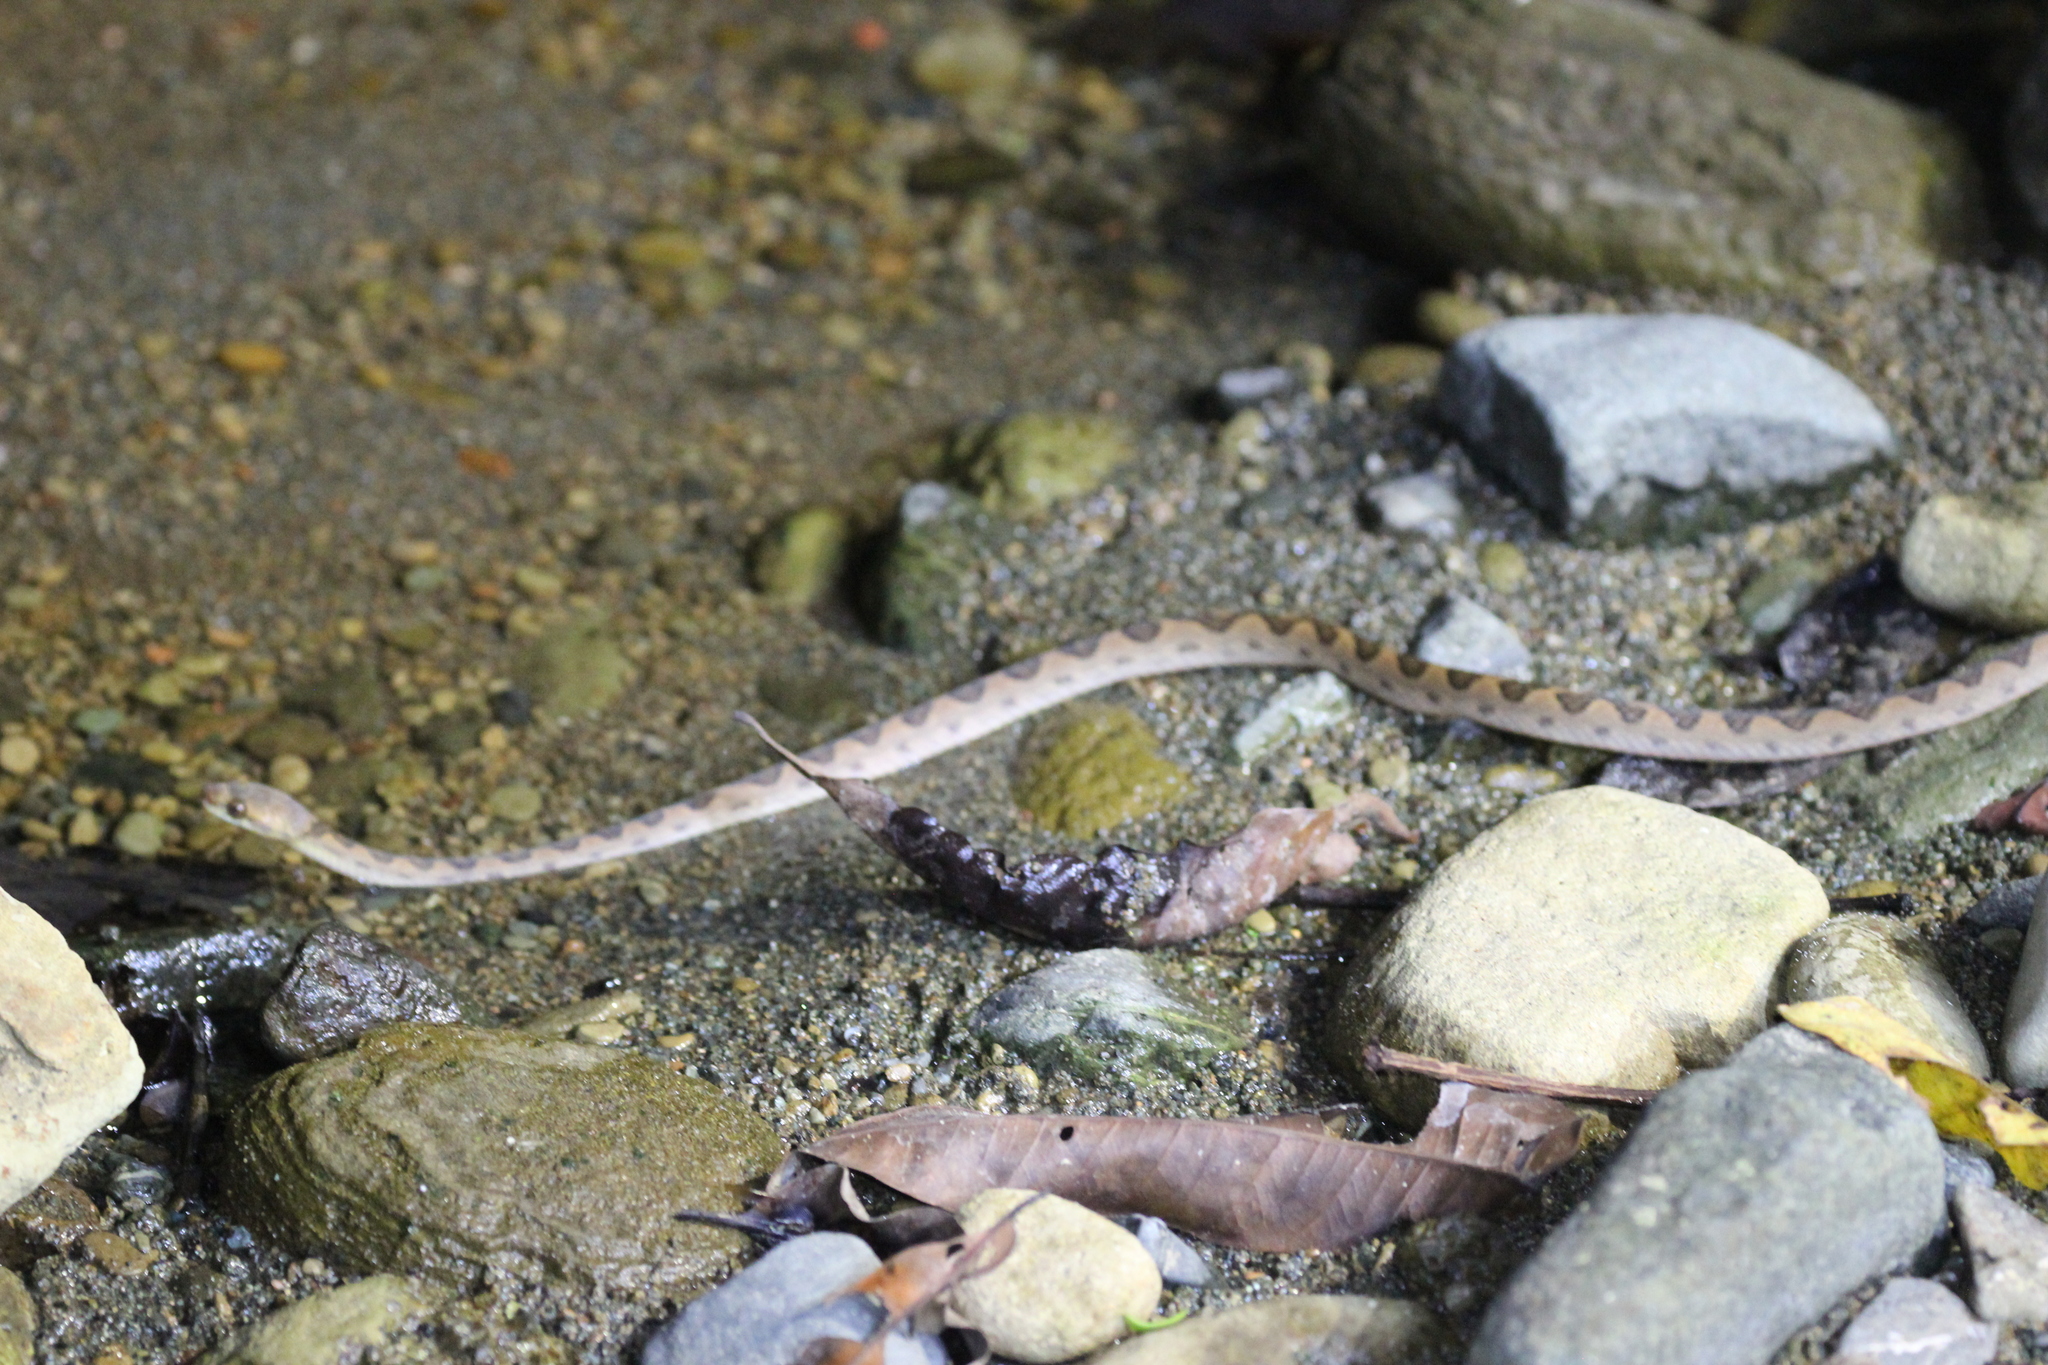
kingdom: Animalia
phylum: Chordata
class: Squamata
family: Colubridae
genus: Leptodeira
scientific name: Leptodeira ornata
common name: Northern cat-eyed snake
